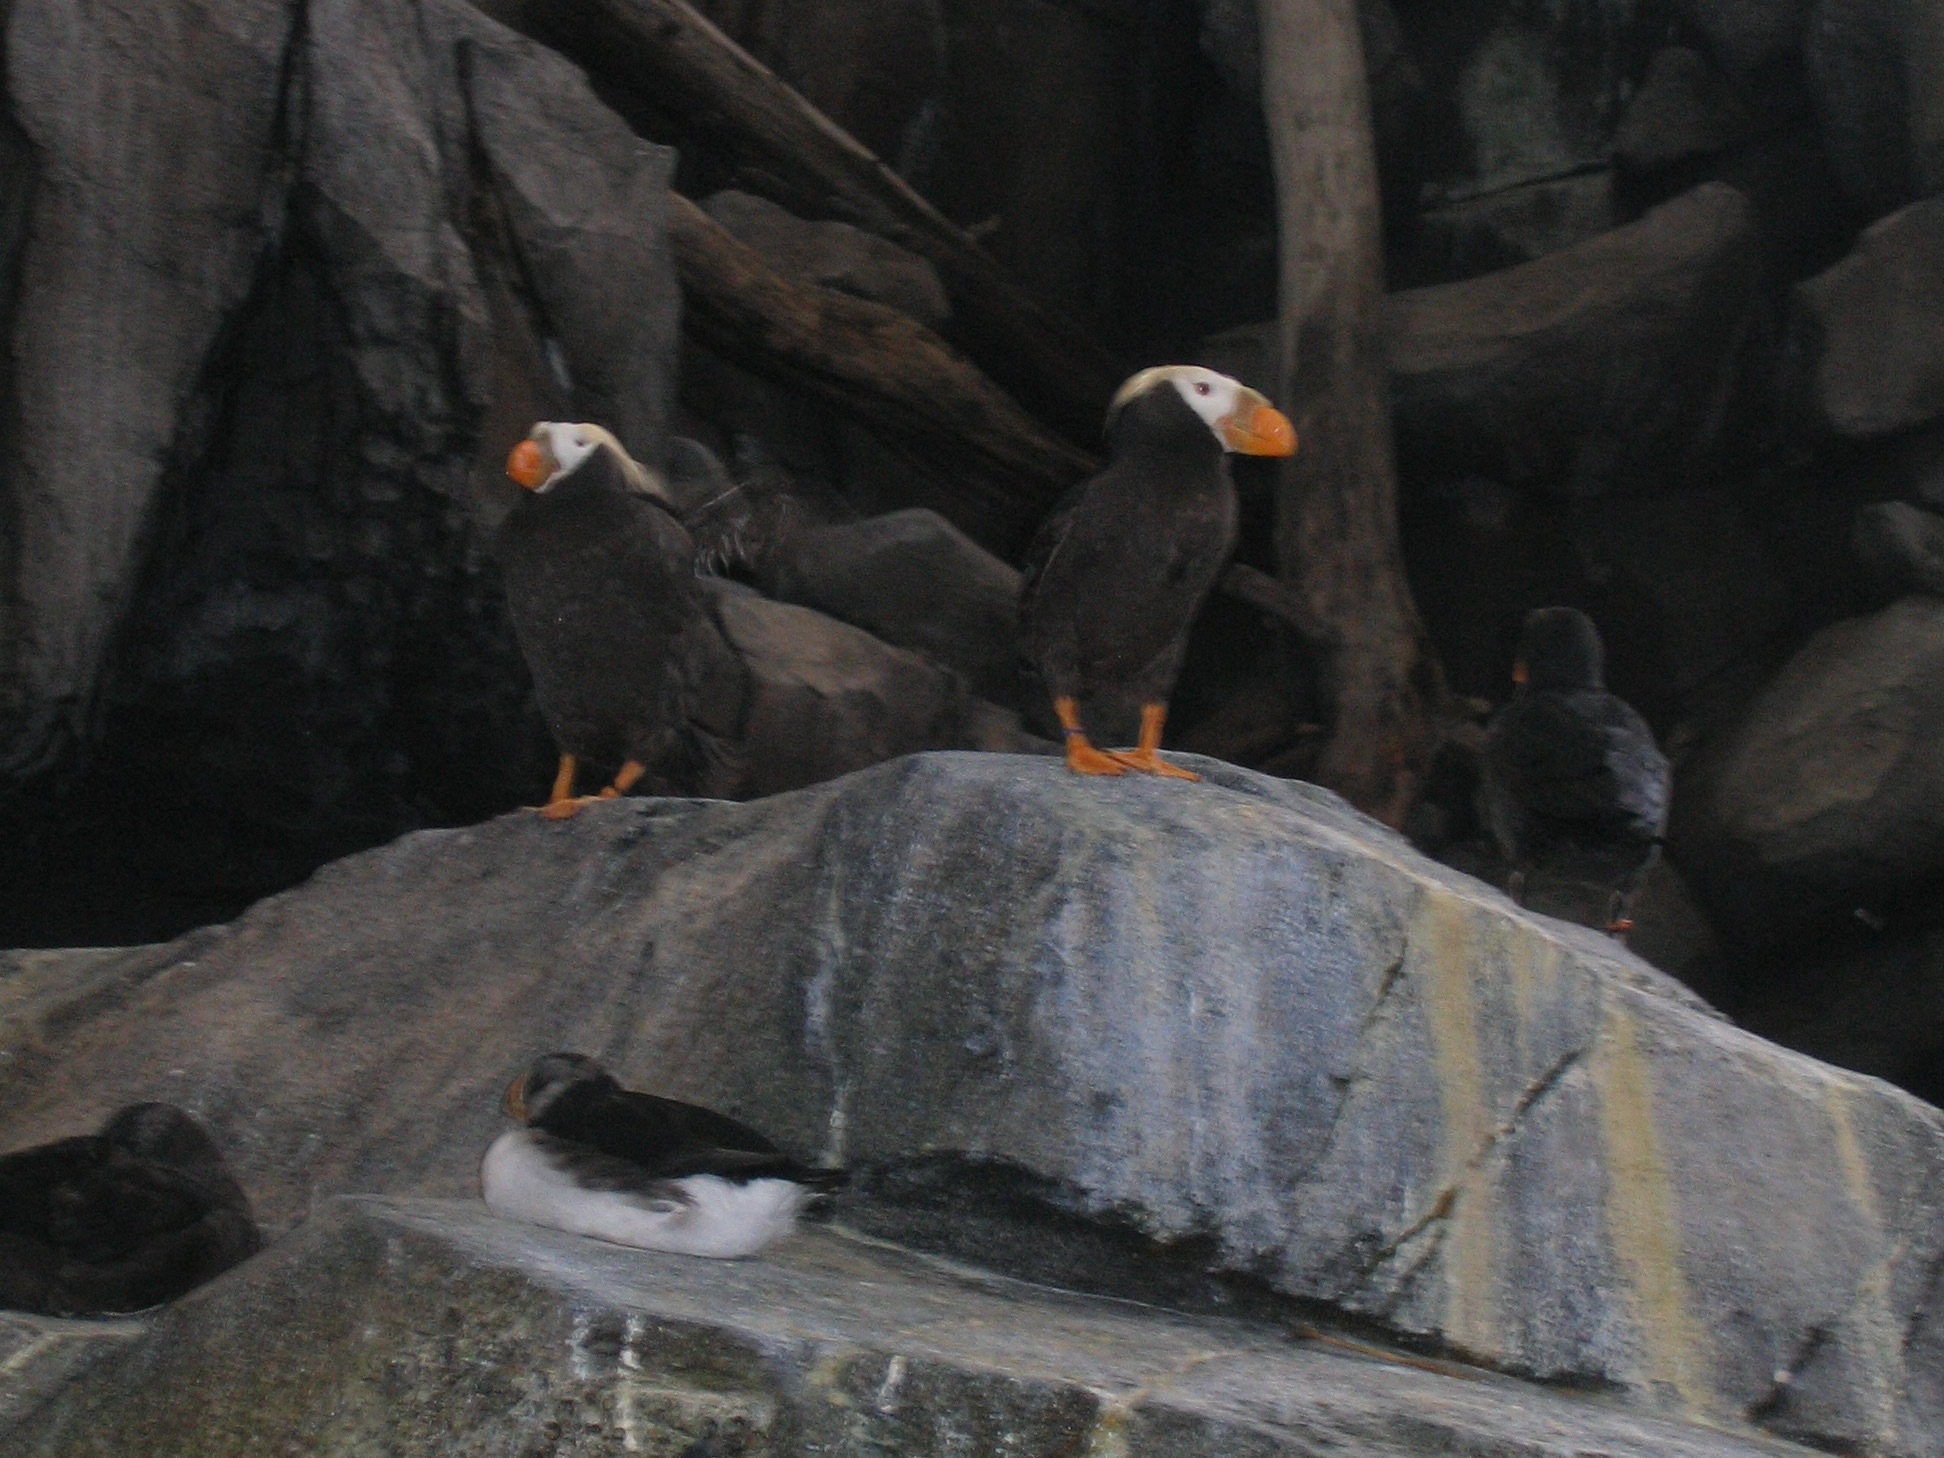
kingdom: Animalia
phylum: Chordata
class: Aves
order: Charadriiformes
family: Alcidae
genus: Fratercula
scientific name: Fratercula cirrhata
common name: Tufted puffin
